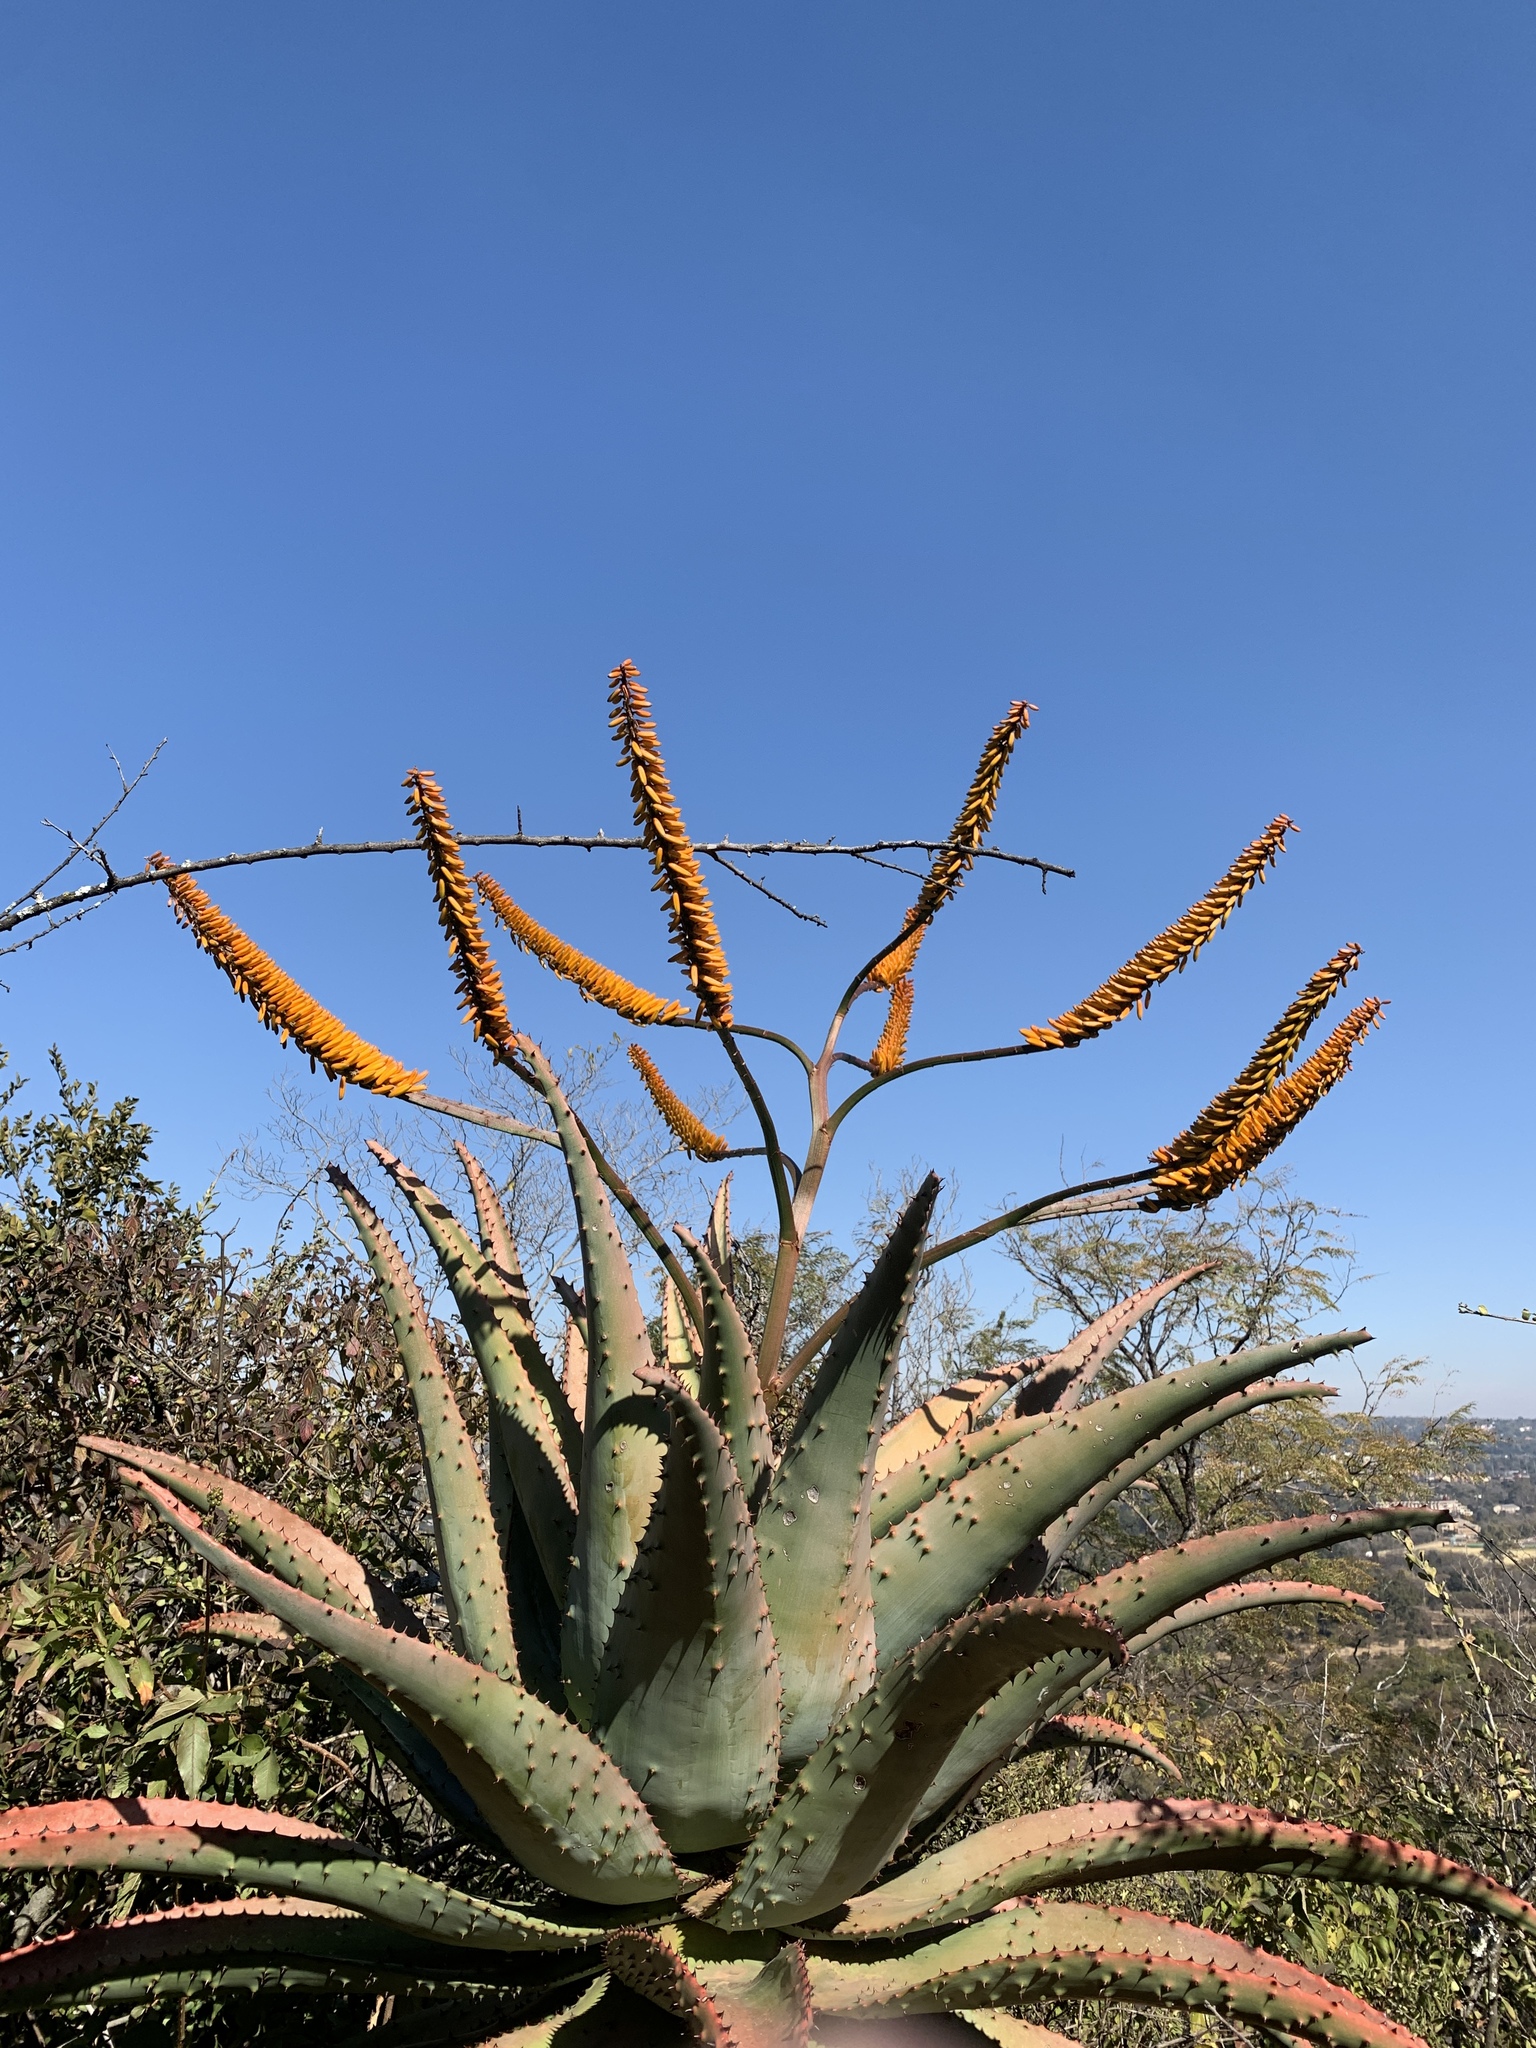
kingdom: Plantae
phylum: Tracheophyta
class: Liliopsida
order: Asparagales
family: Asphodelaceae
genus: Aloe
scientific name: Aloe marlothii
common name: Flat-flowered aloe
